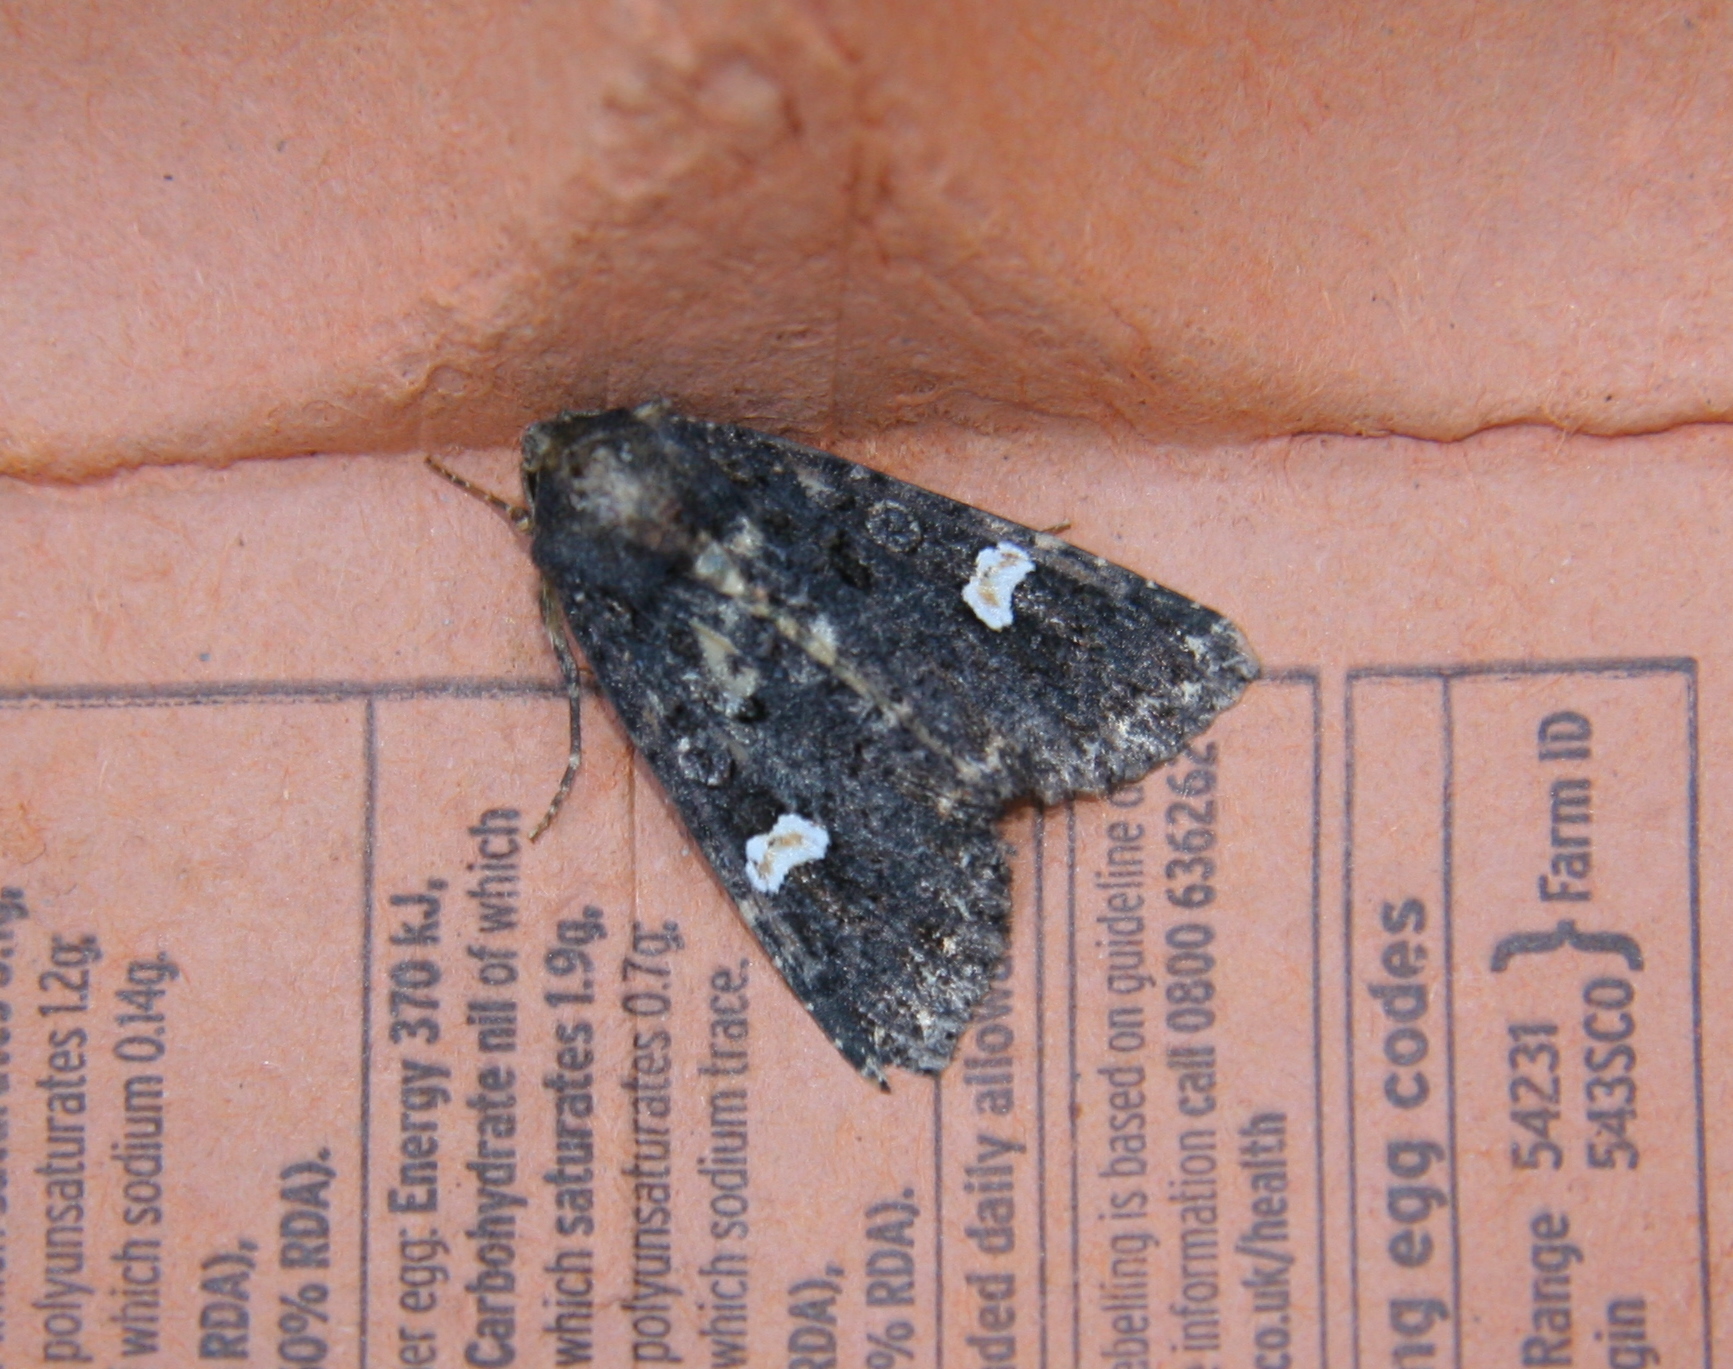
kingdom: Animalia
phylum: Arthropoda
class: Insecta
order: Lepidoptera
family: Noctuidae
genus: Melanchra
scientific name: Melanchra persicariae
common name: Dot moth
